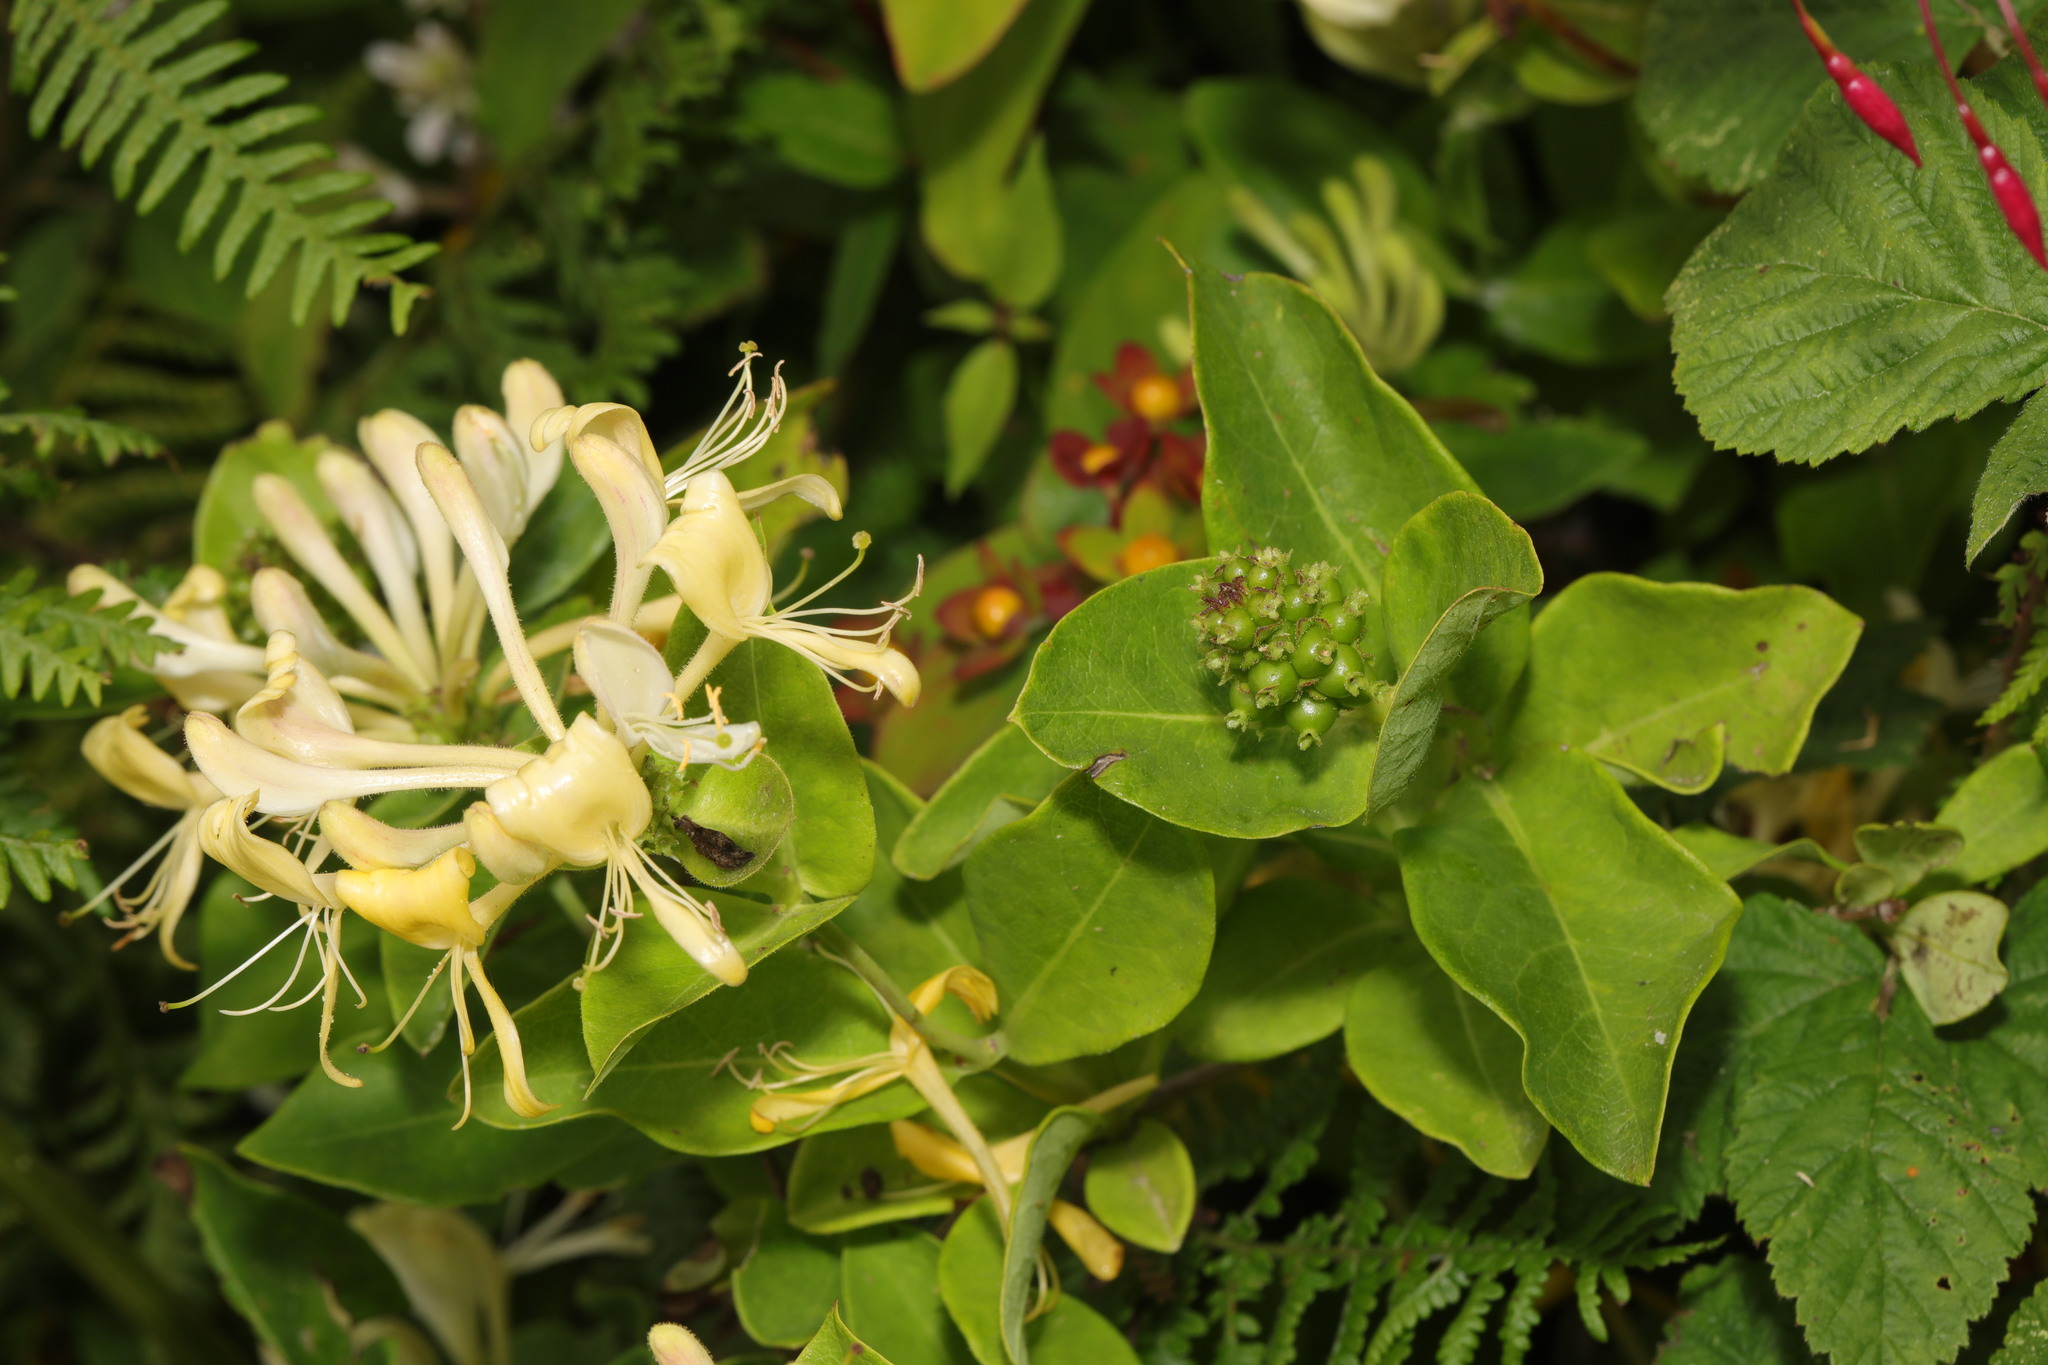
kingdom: Plantae
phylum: Tracheophyta
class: Magnoliopsida
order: Dipsacales
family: Caprifoliaceae
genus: Lonicera
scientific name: Lonicera periclymenum
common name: European honeysuckle
